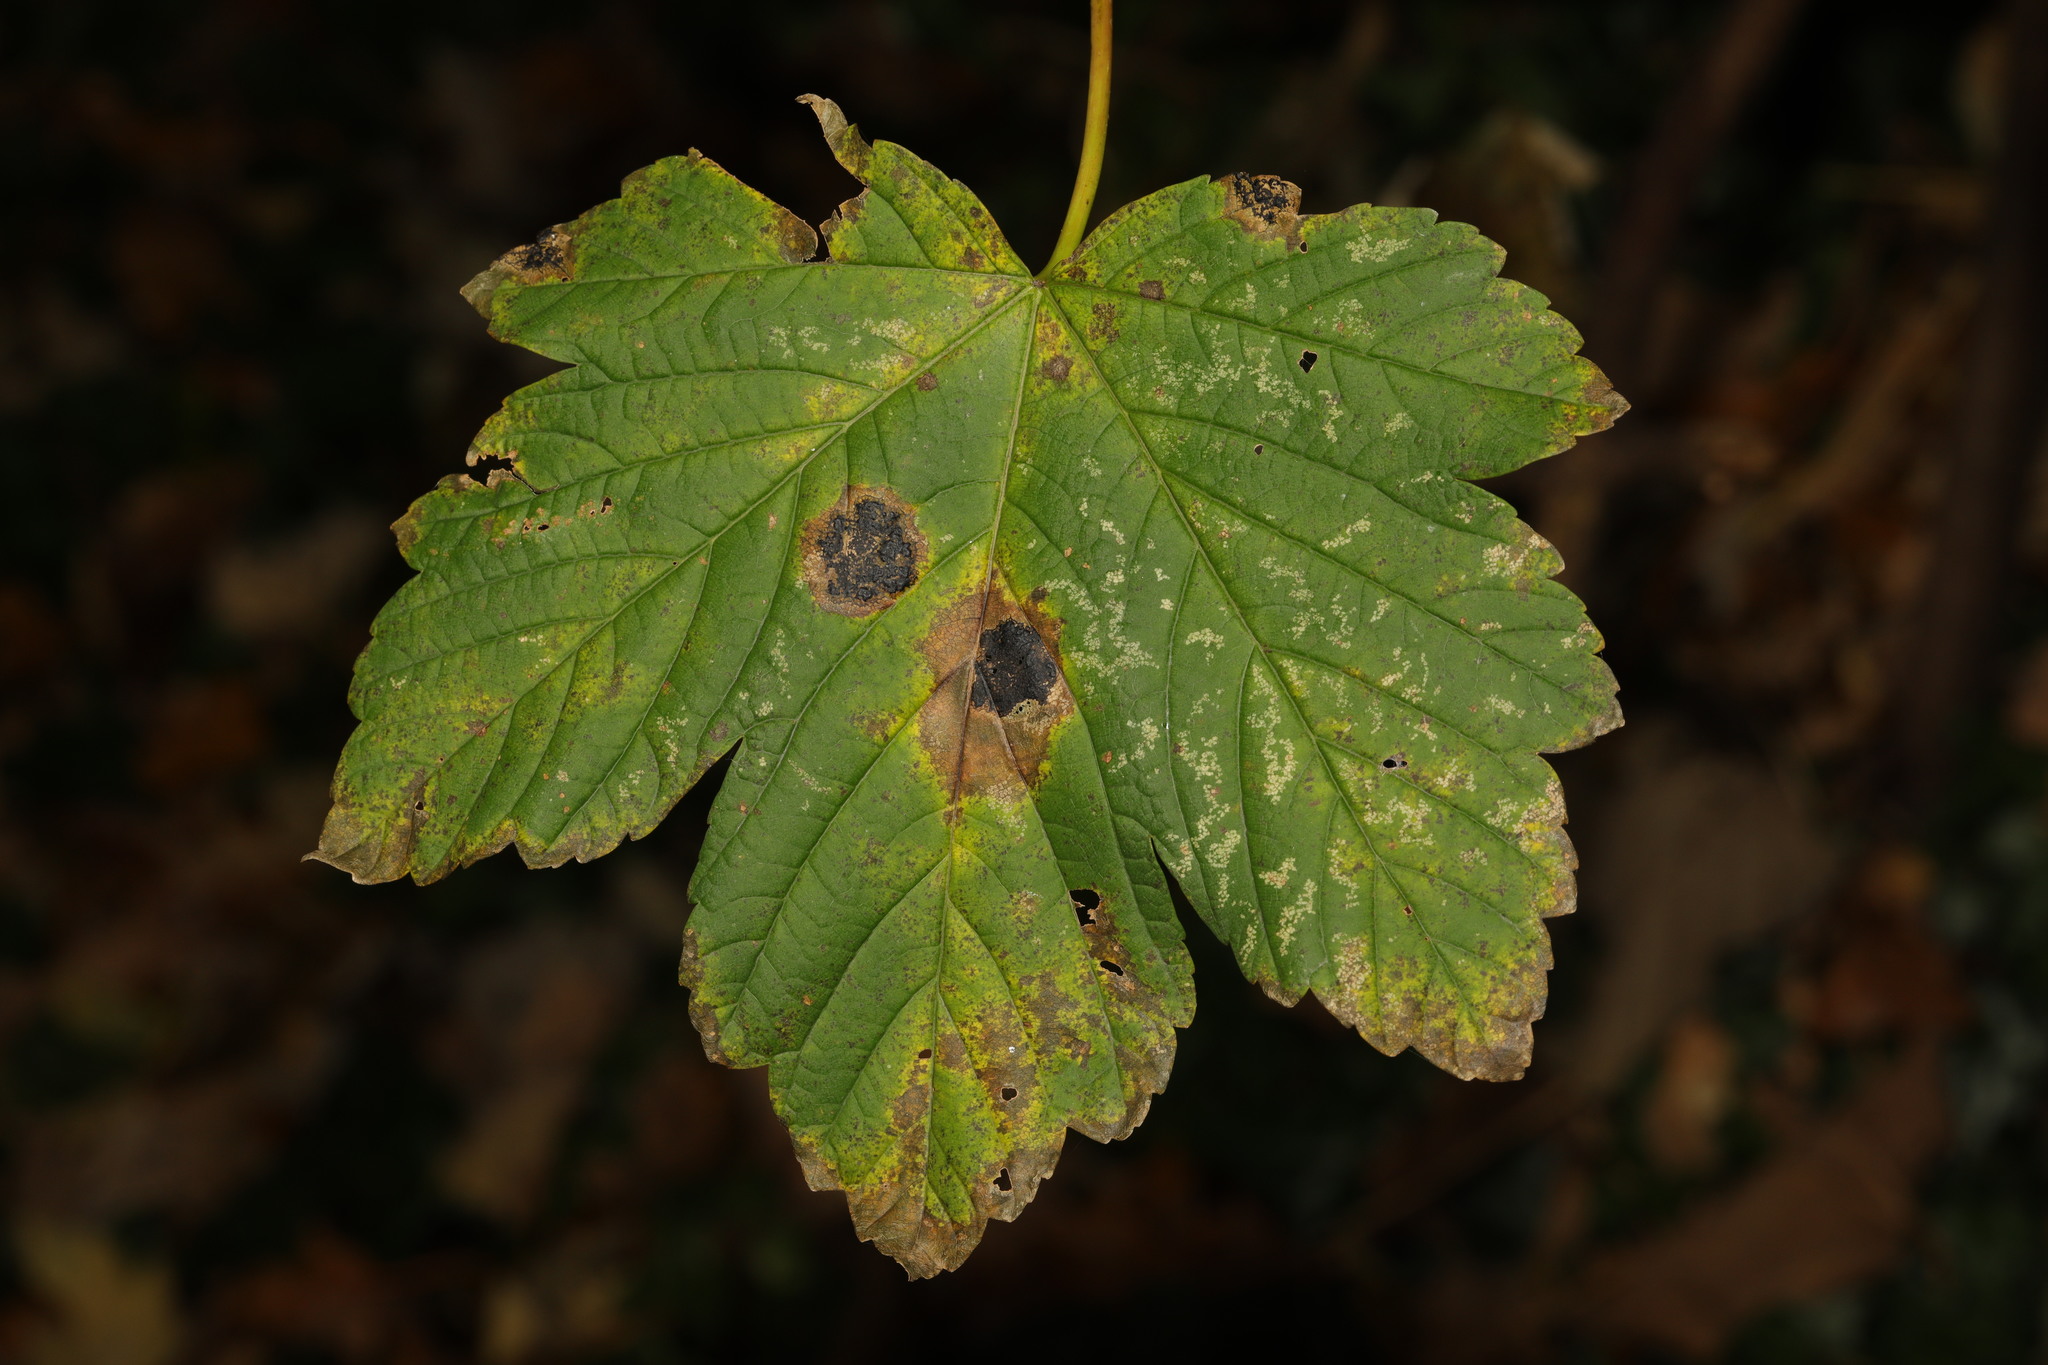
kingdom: Plantae
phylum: Tracheophyta
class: Magnoliopsida
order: Sapindales
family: Sapindaceae
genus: Acer
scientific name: Acer pseudoplatanus
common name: Sycamore
